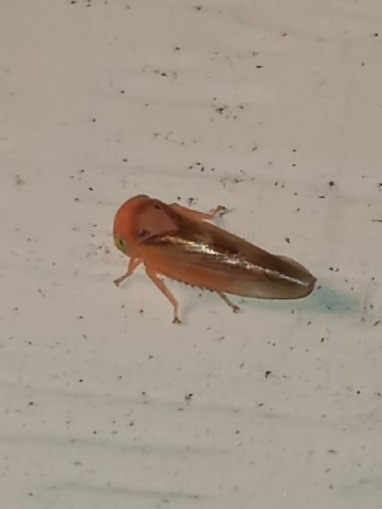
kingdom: Animalia
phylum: Arthropoda
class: Insecta
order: Hemiptera
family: Cicadellidae
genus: Populicerus
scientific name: Populicerus stellaris
